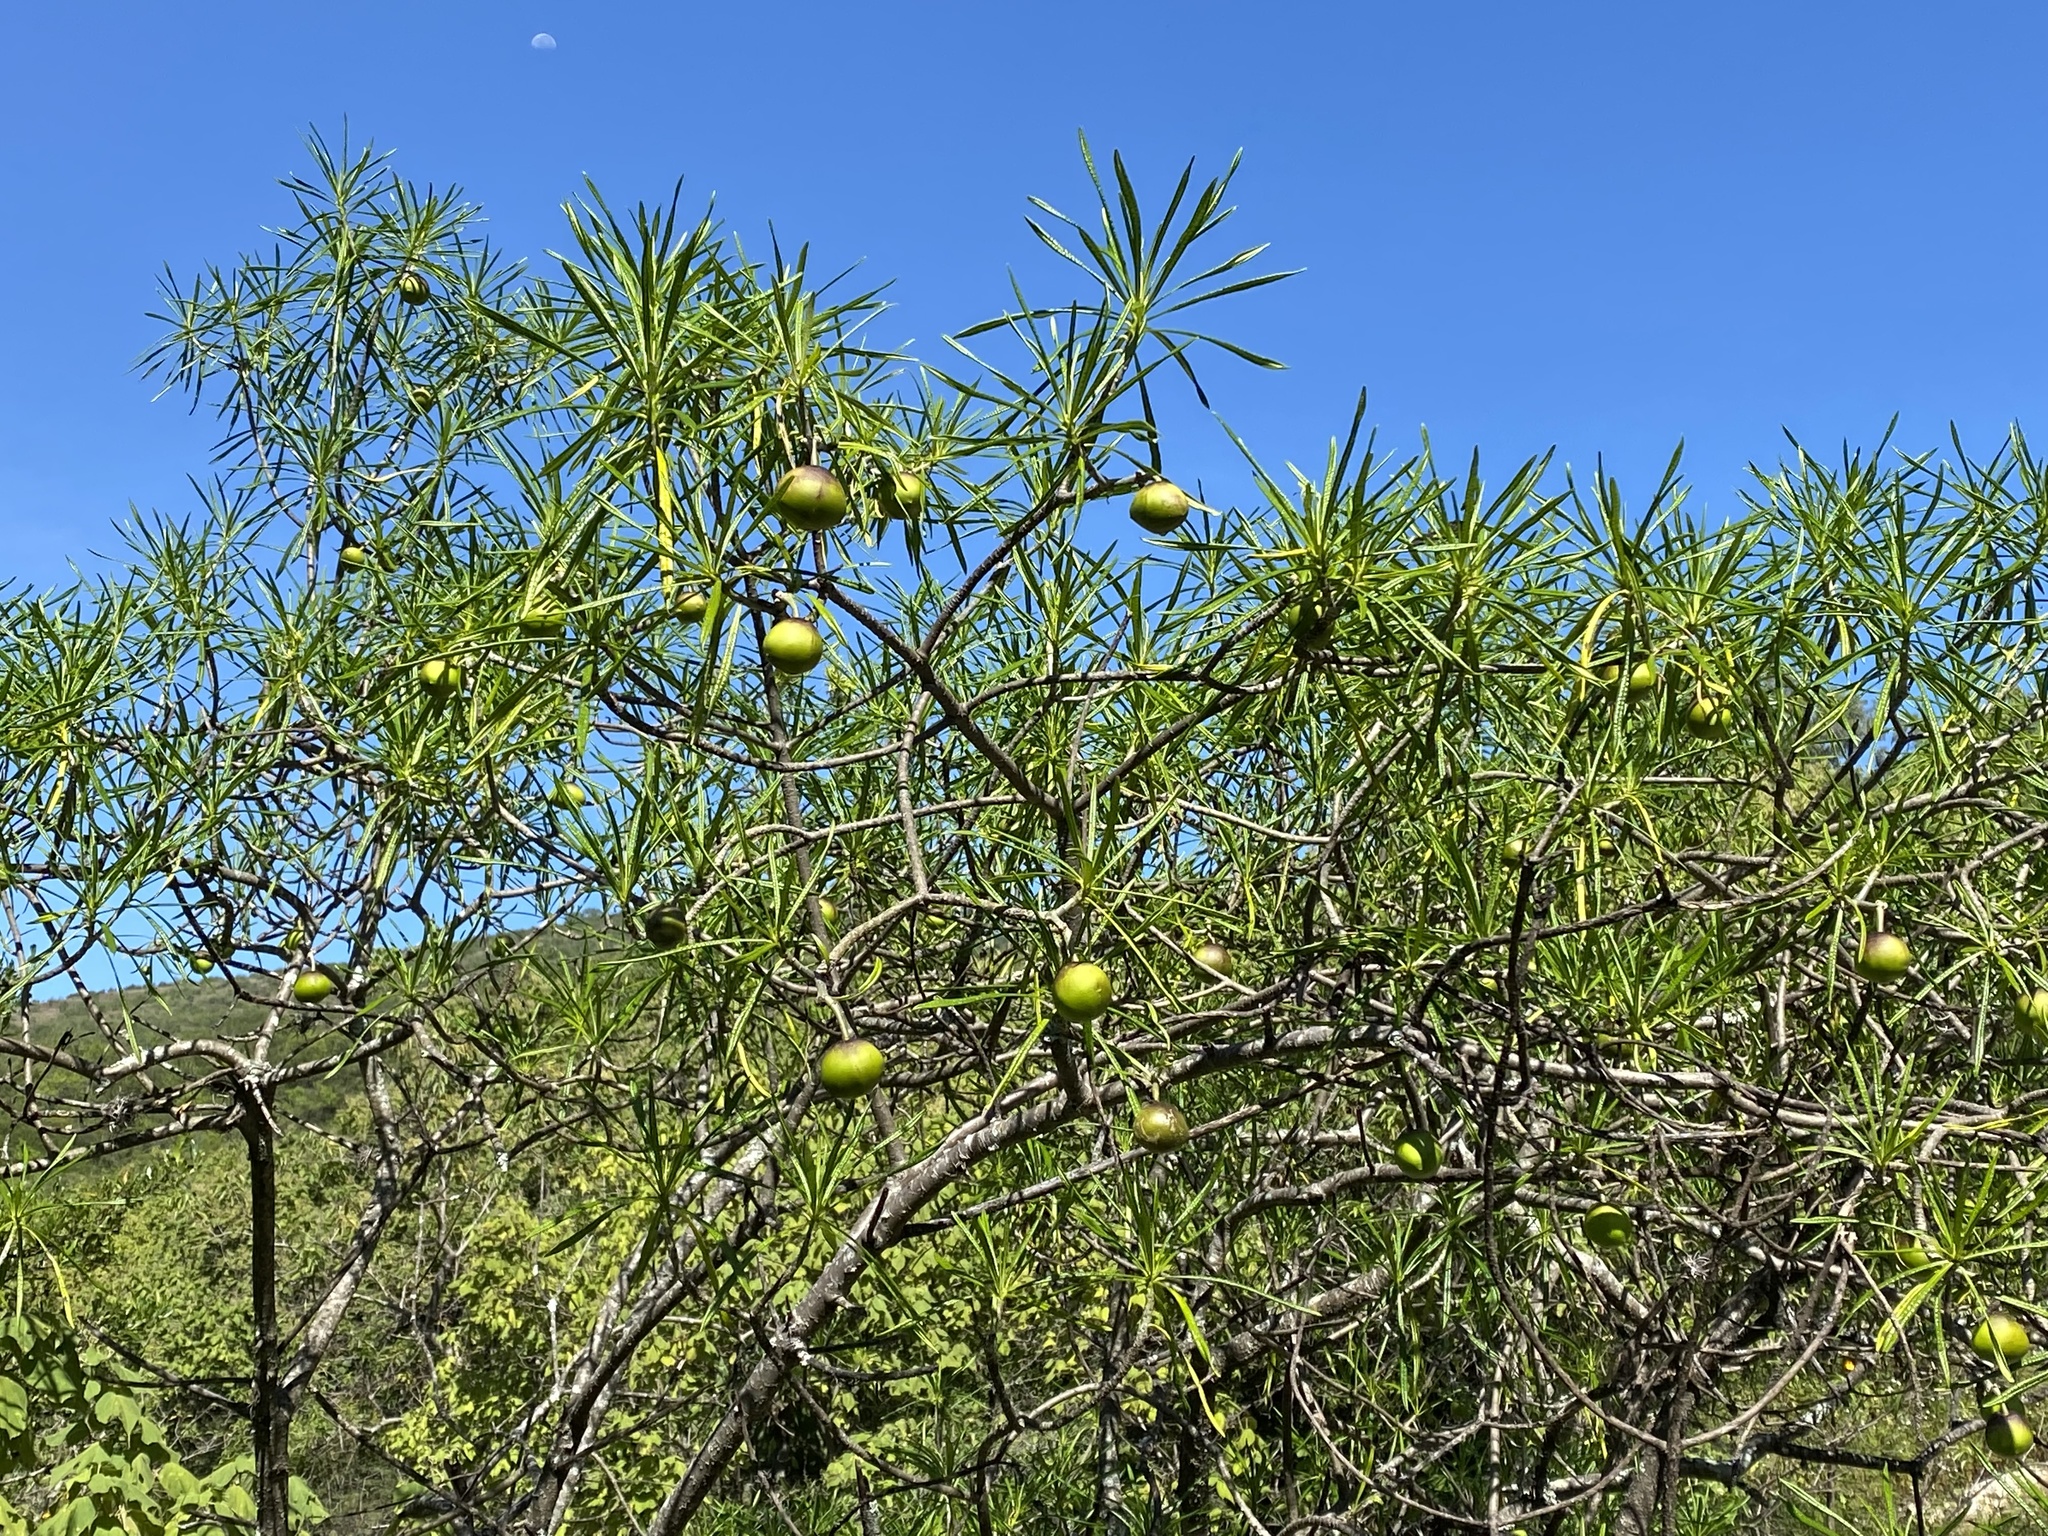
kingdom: Plantae
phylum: Tracheophyta
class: Magnoliopsida
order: Gentianales
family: Apocynaceae
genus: Cascabela
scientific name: Cascabela thevetioides
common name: Yellow oleander
